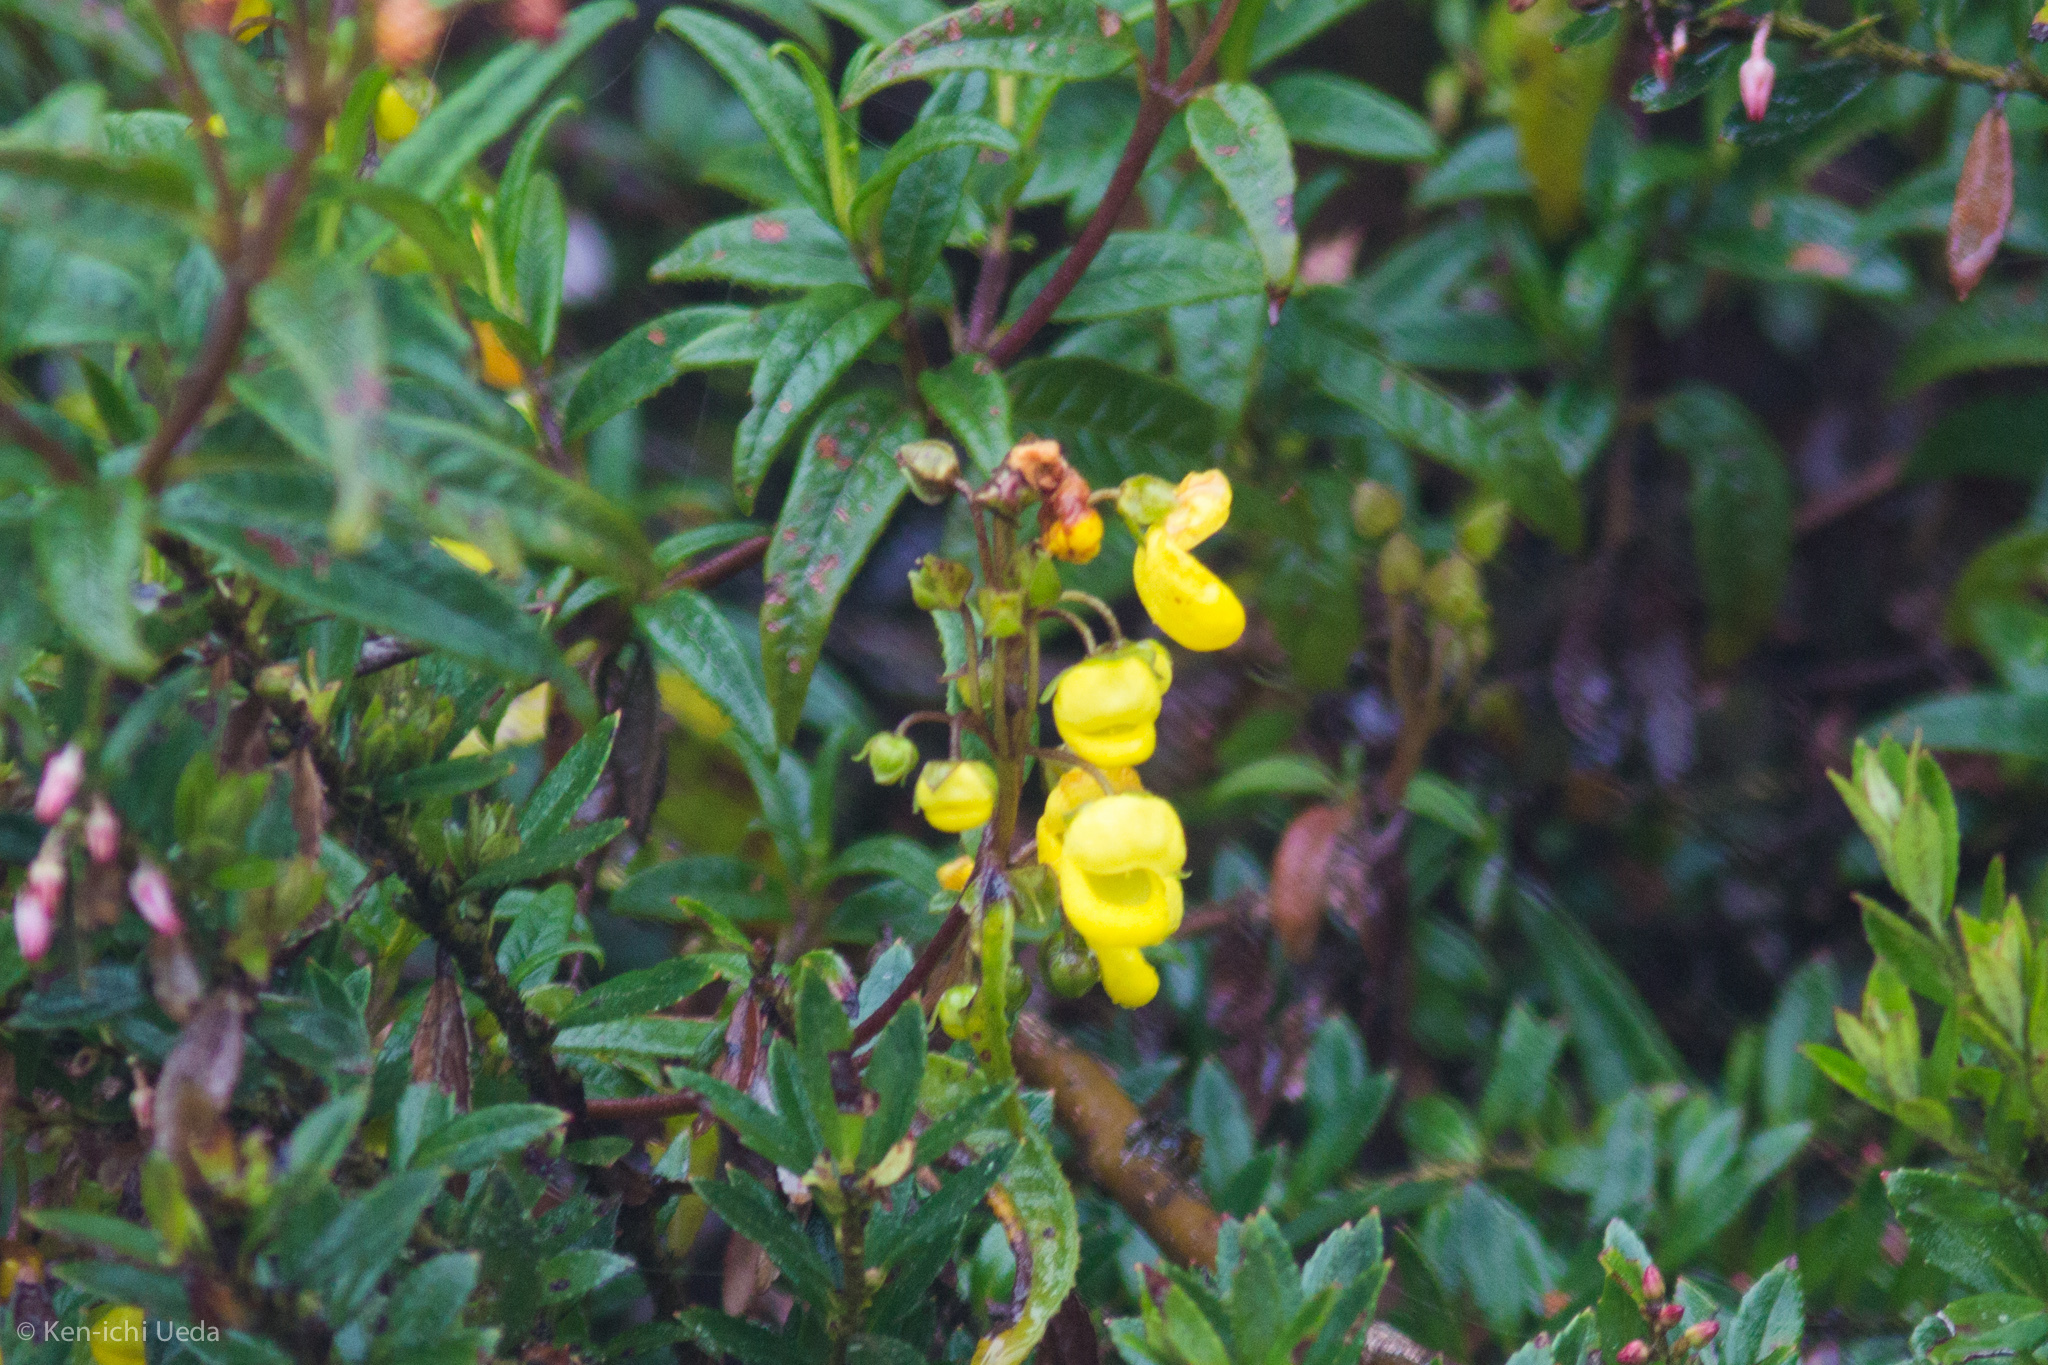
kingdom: Plantae
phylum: Tracheophyta
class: Magnoliopsida
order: Lamiales
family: Calceolariaceae
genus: Calceolaria
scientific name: Calceolaria microbefaria
